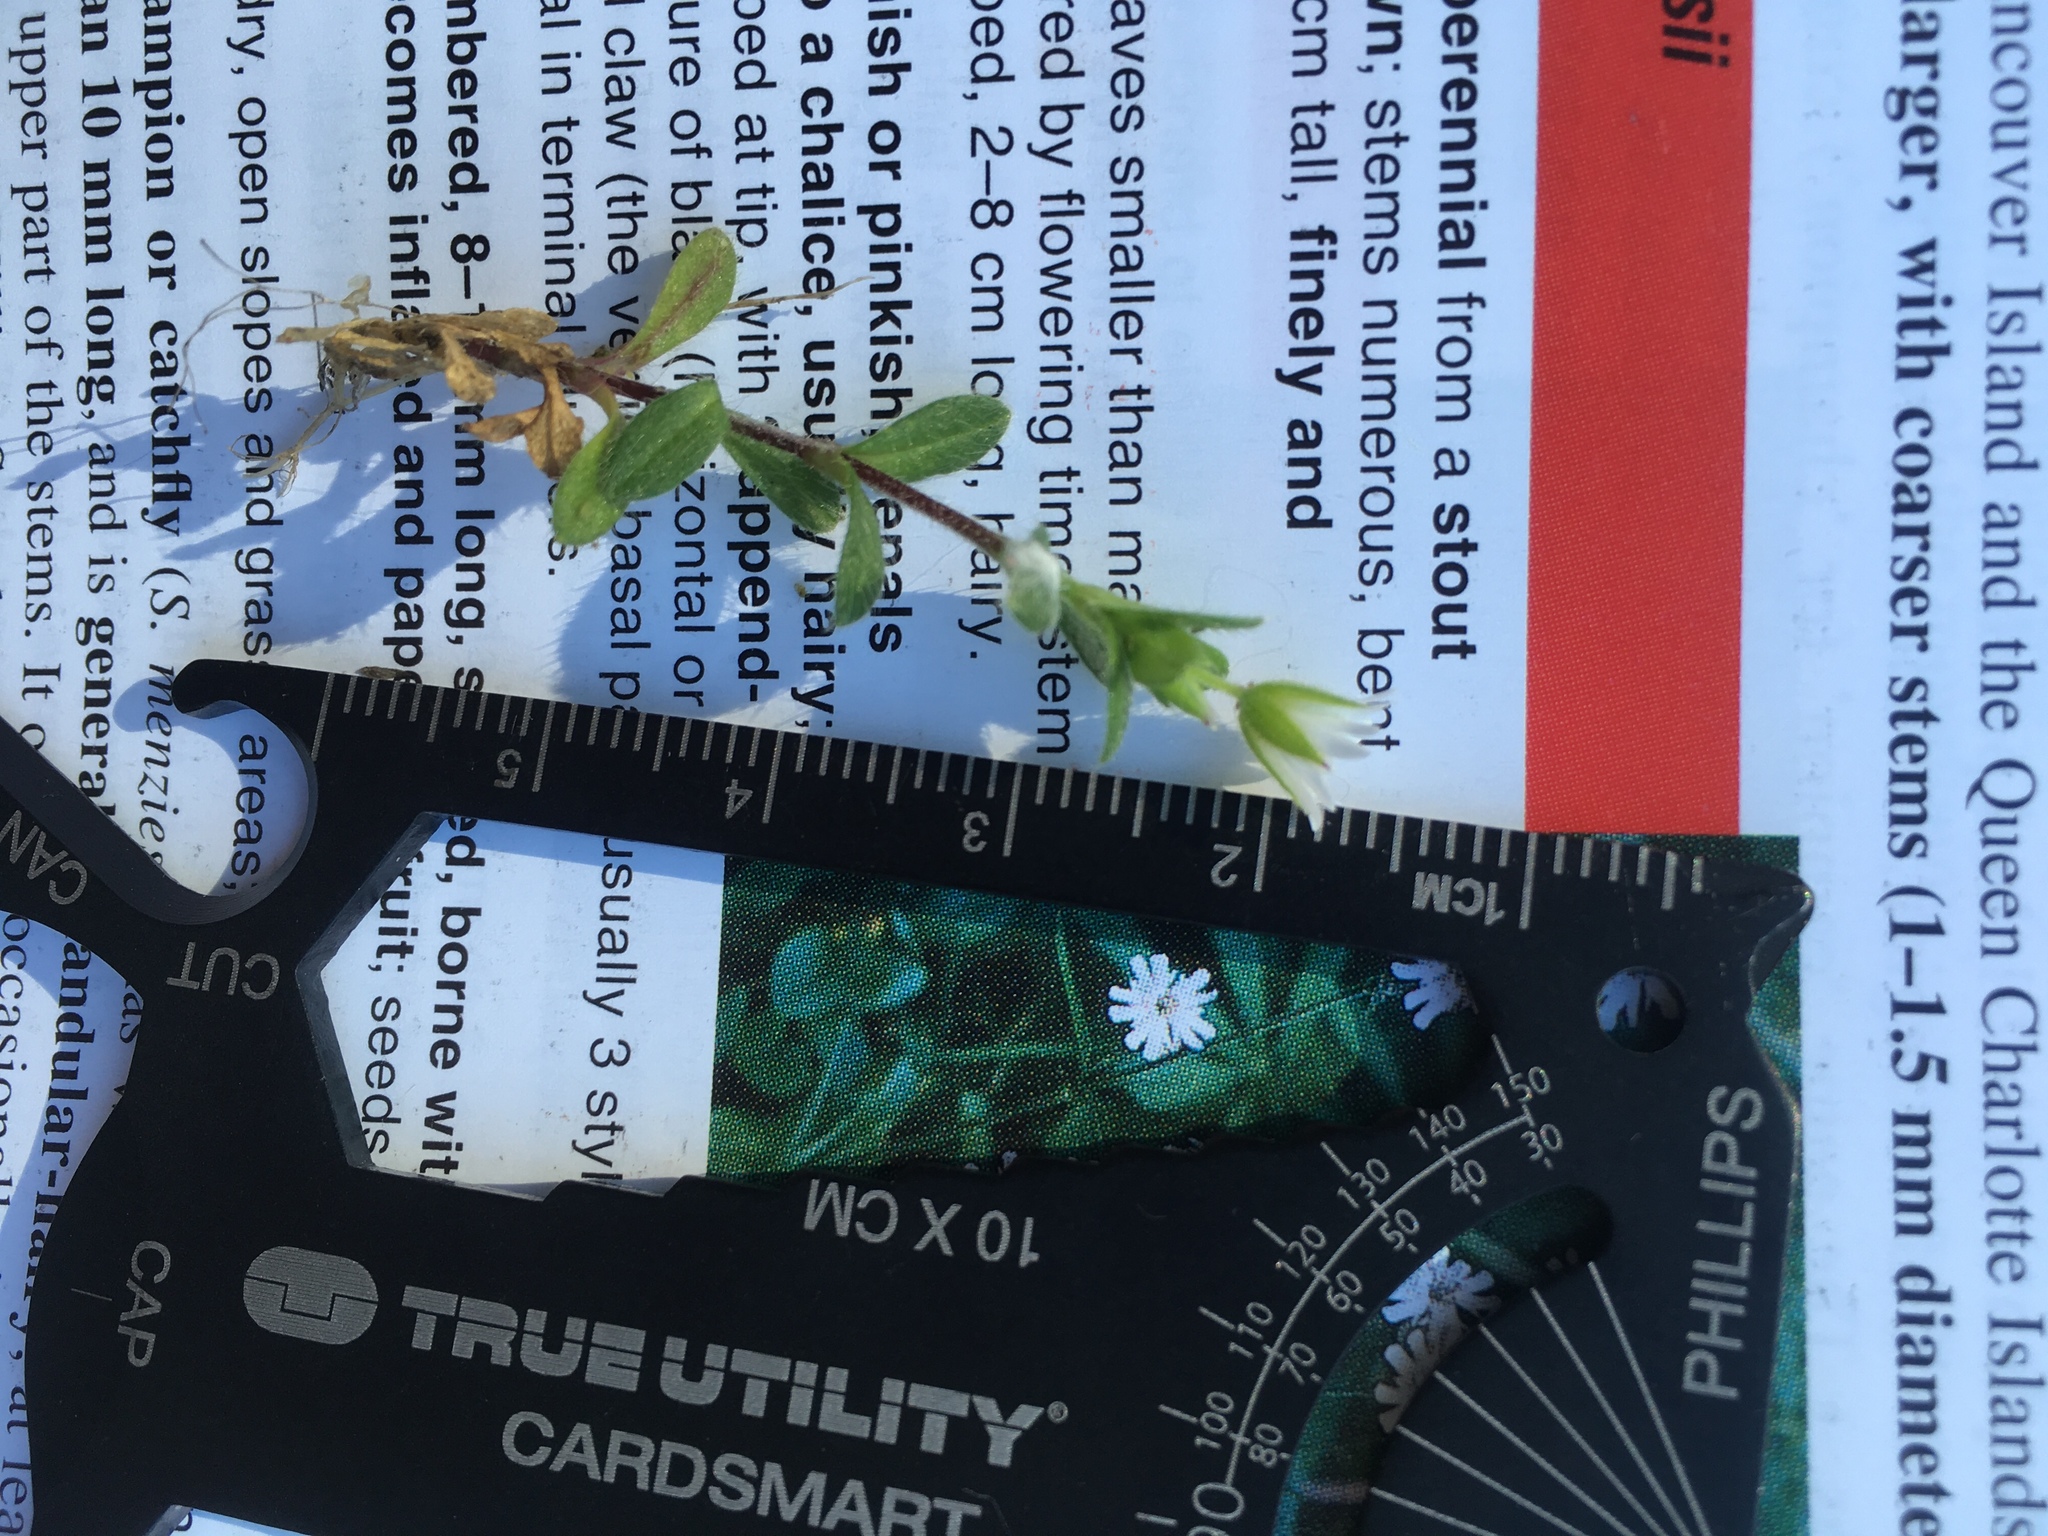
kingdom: Plantae
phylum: Tracheophyta
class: Magnoliopsida
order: Caryophyllales
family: Caryophyllaceae
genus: Cerastium
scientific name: Cerastium fontanum
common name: Common mouse-ear
